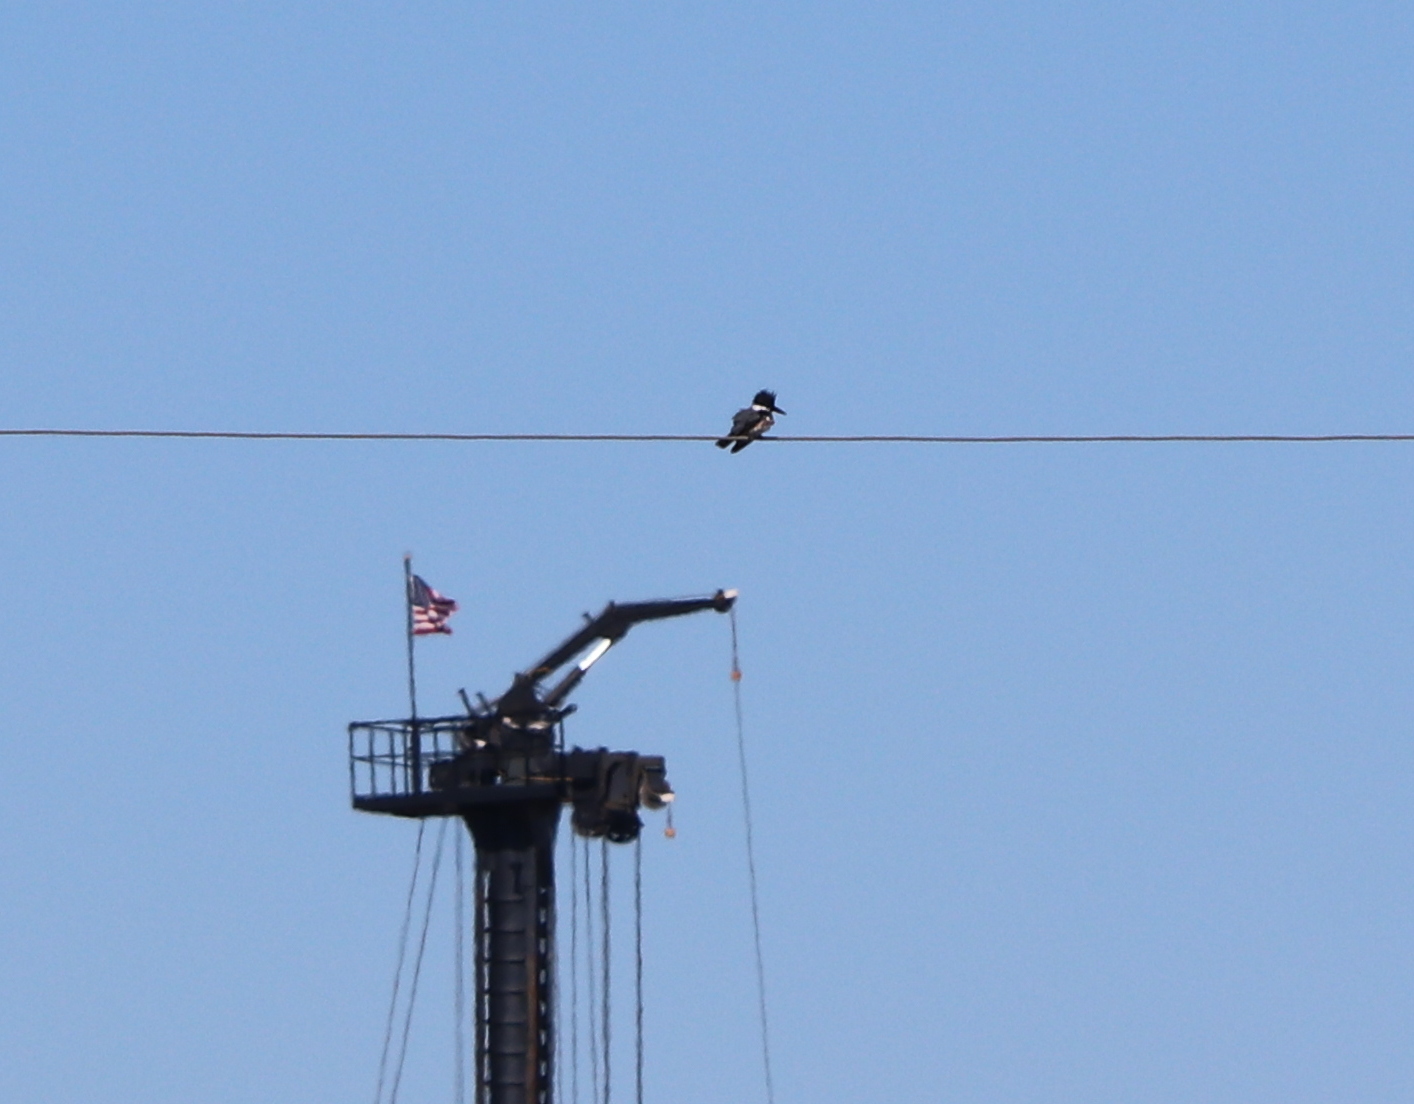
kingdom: Animalia
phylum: Chordata
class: Aves
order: Coraciiformes
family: Alcedinidae
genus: Megaceryle
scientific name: Megaceryle alcyon
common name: Belted kingfisher
